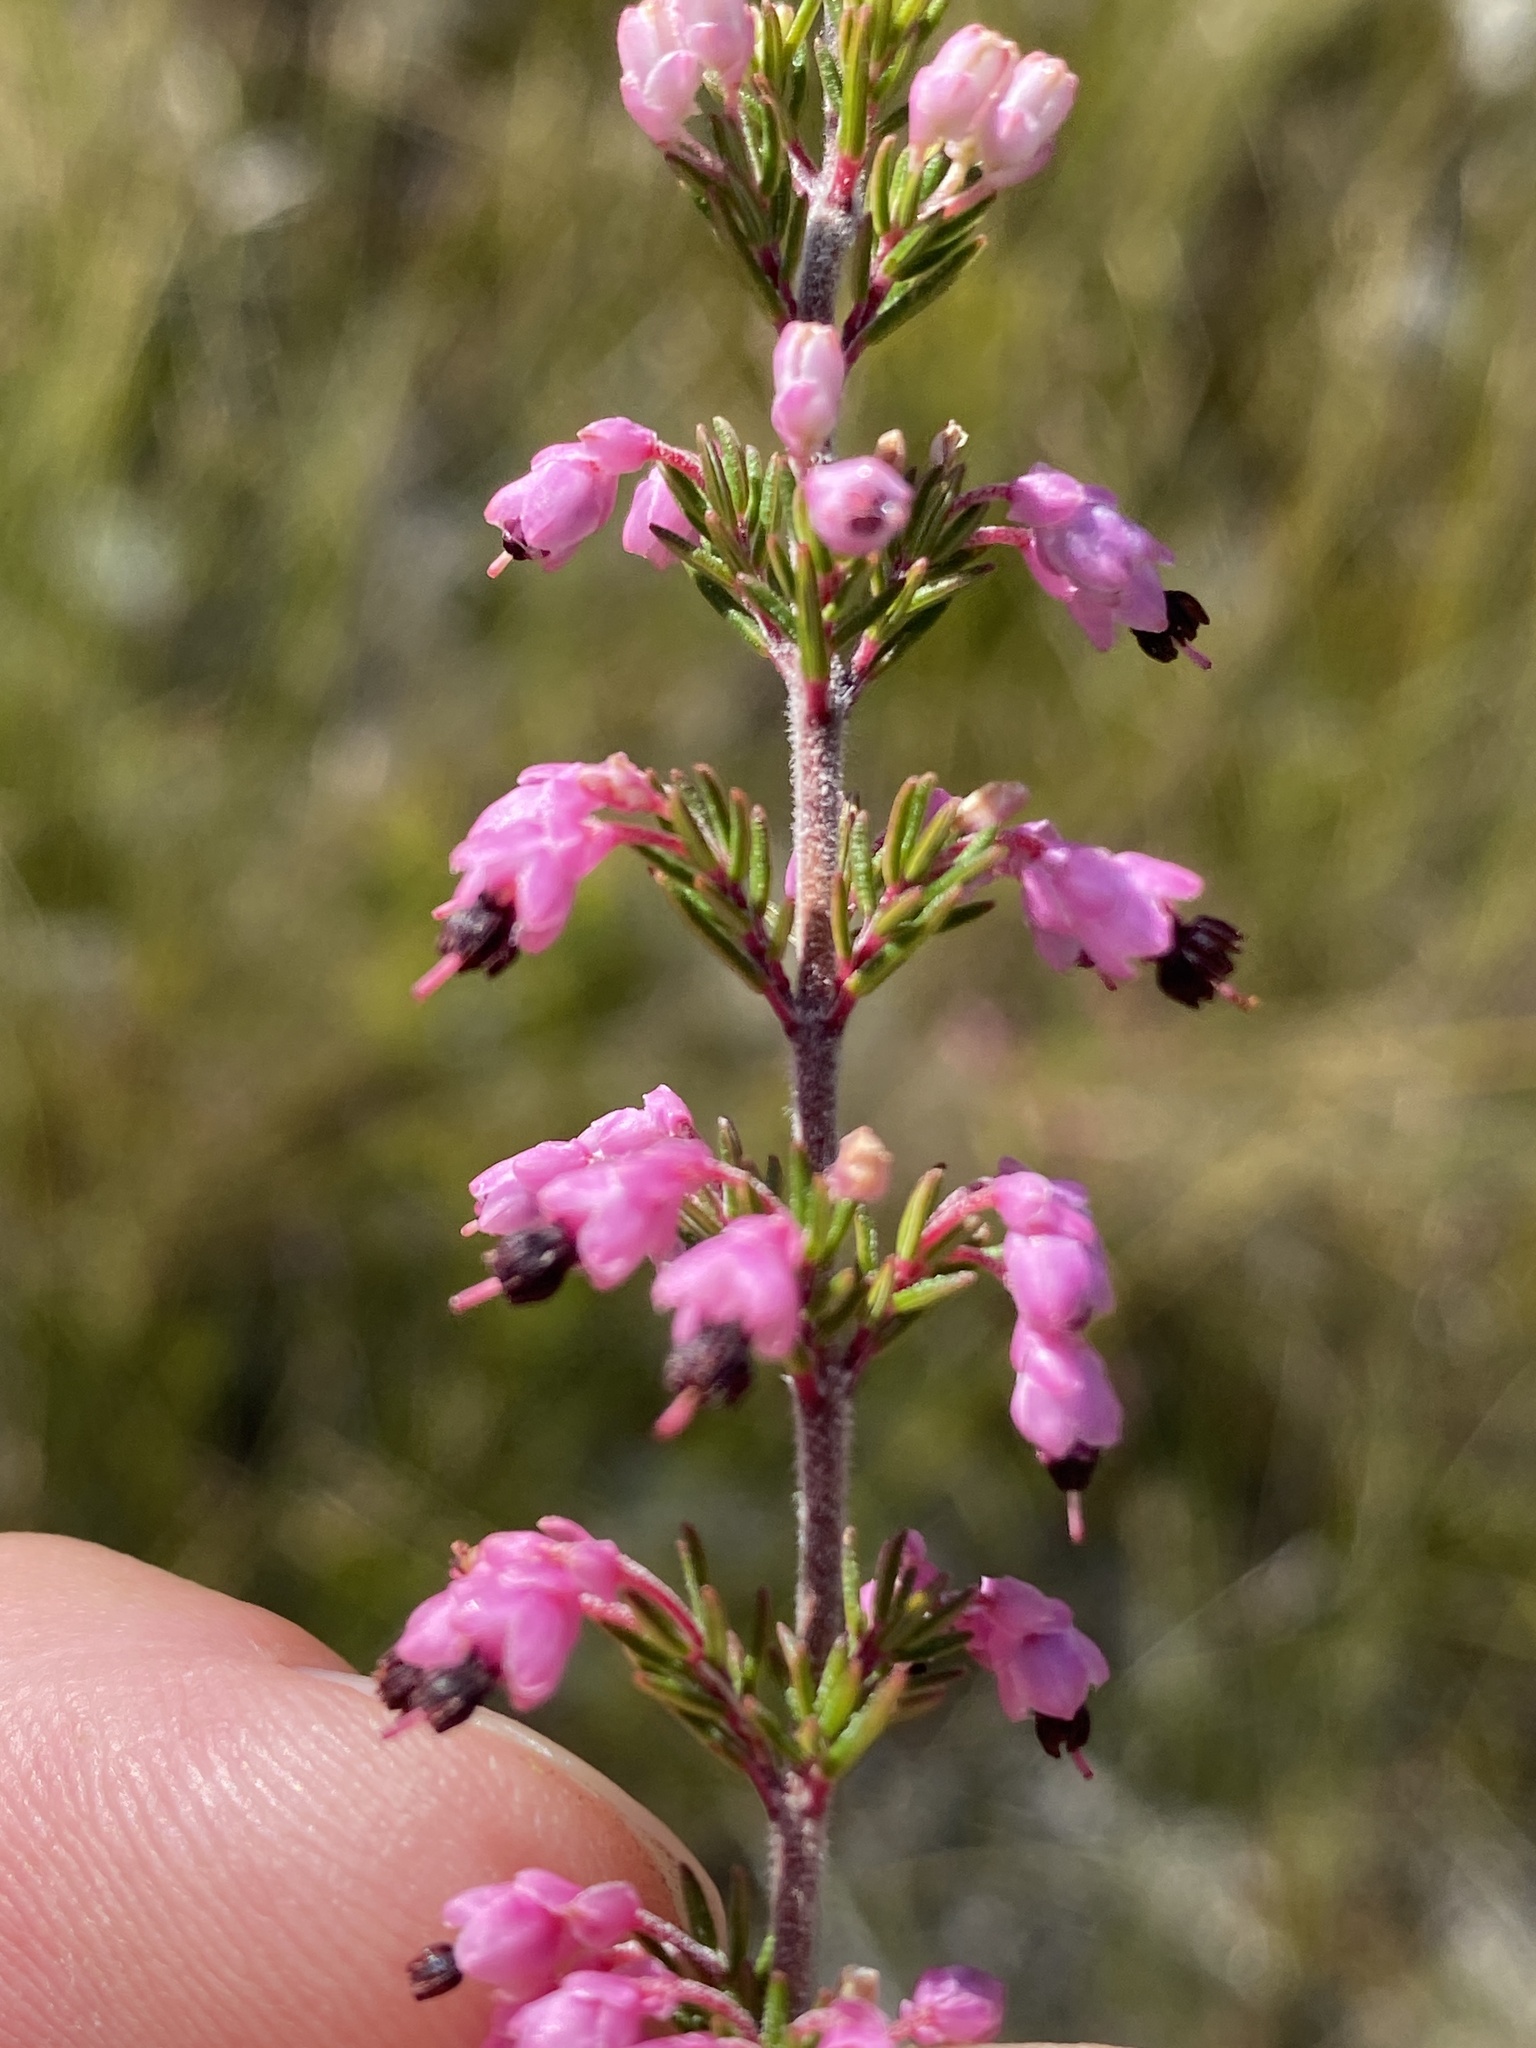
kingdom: Plantae
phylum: Tracheophyta
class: Magnoliopsida
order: Ericales
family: Ericaceae
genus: Erica
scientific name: Erica placentiflora
